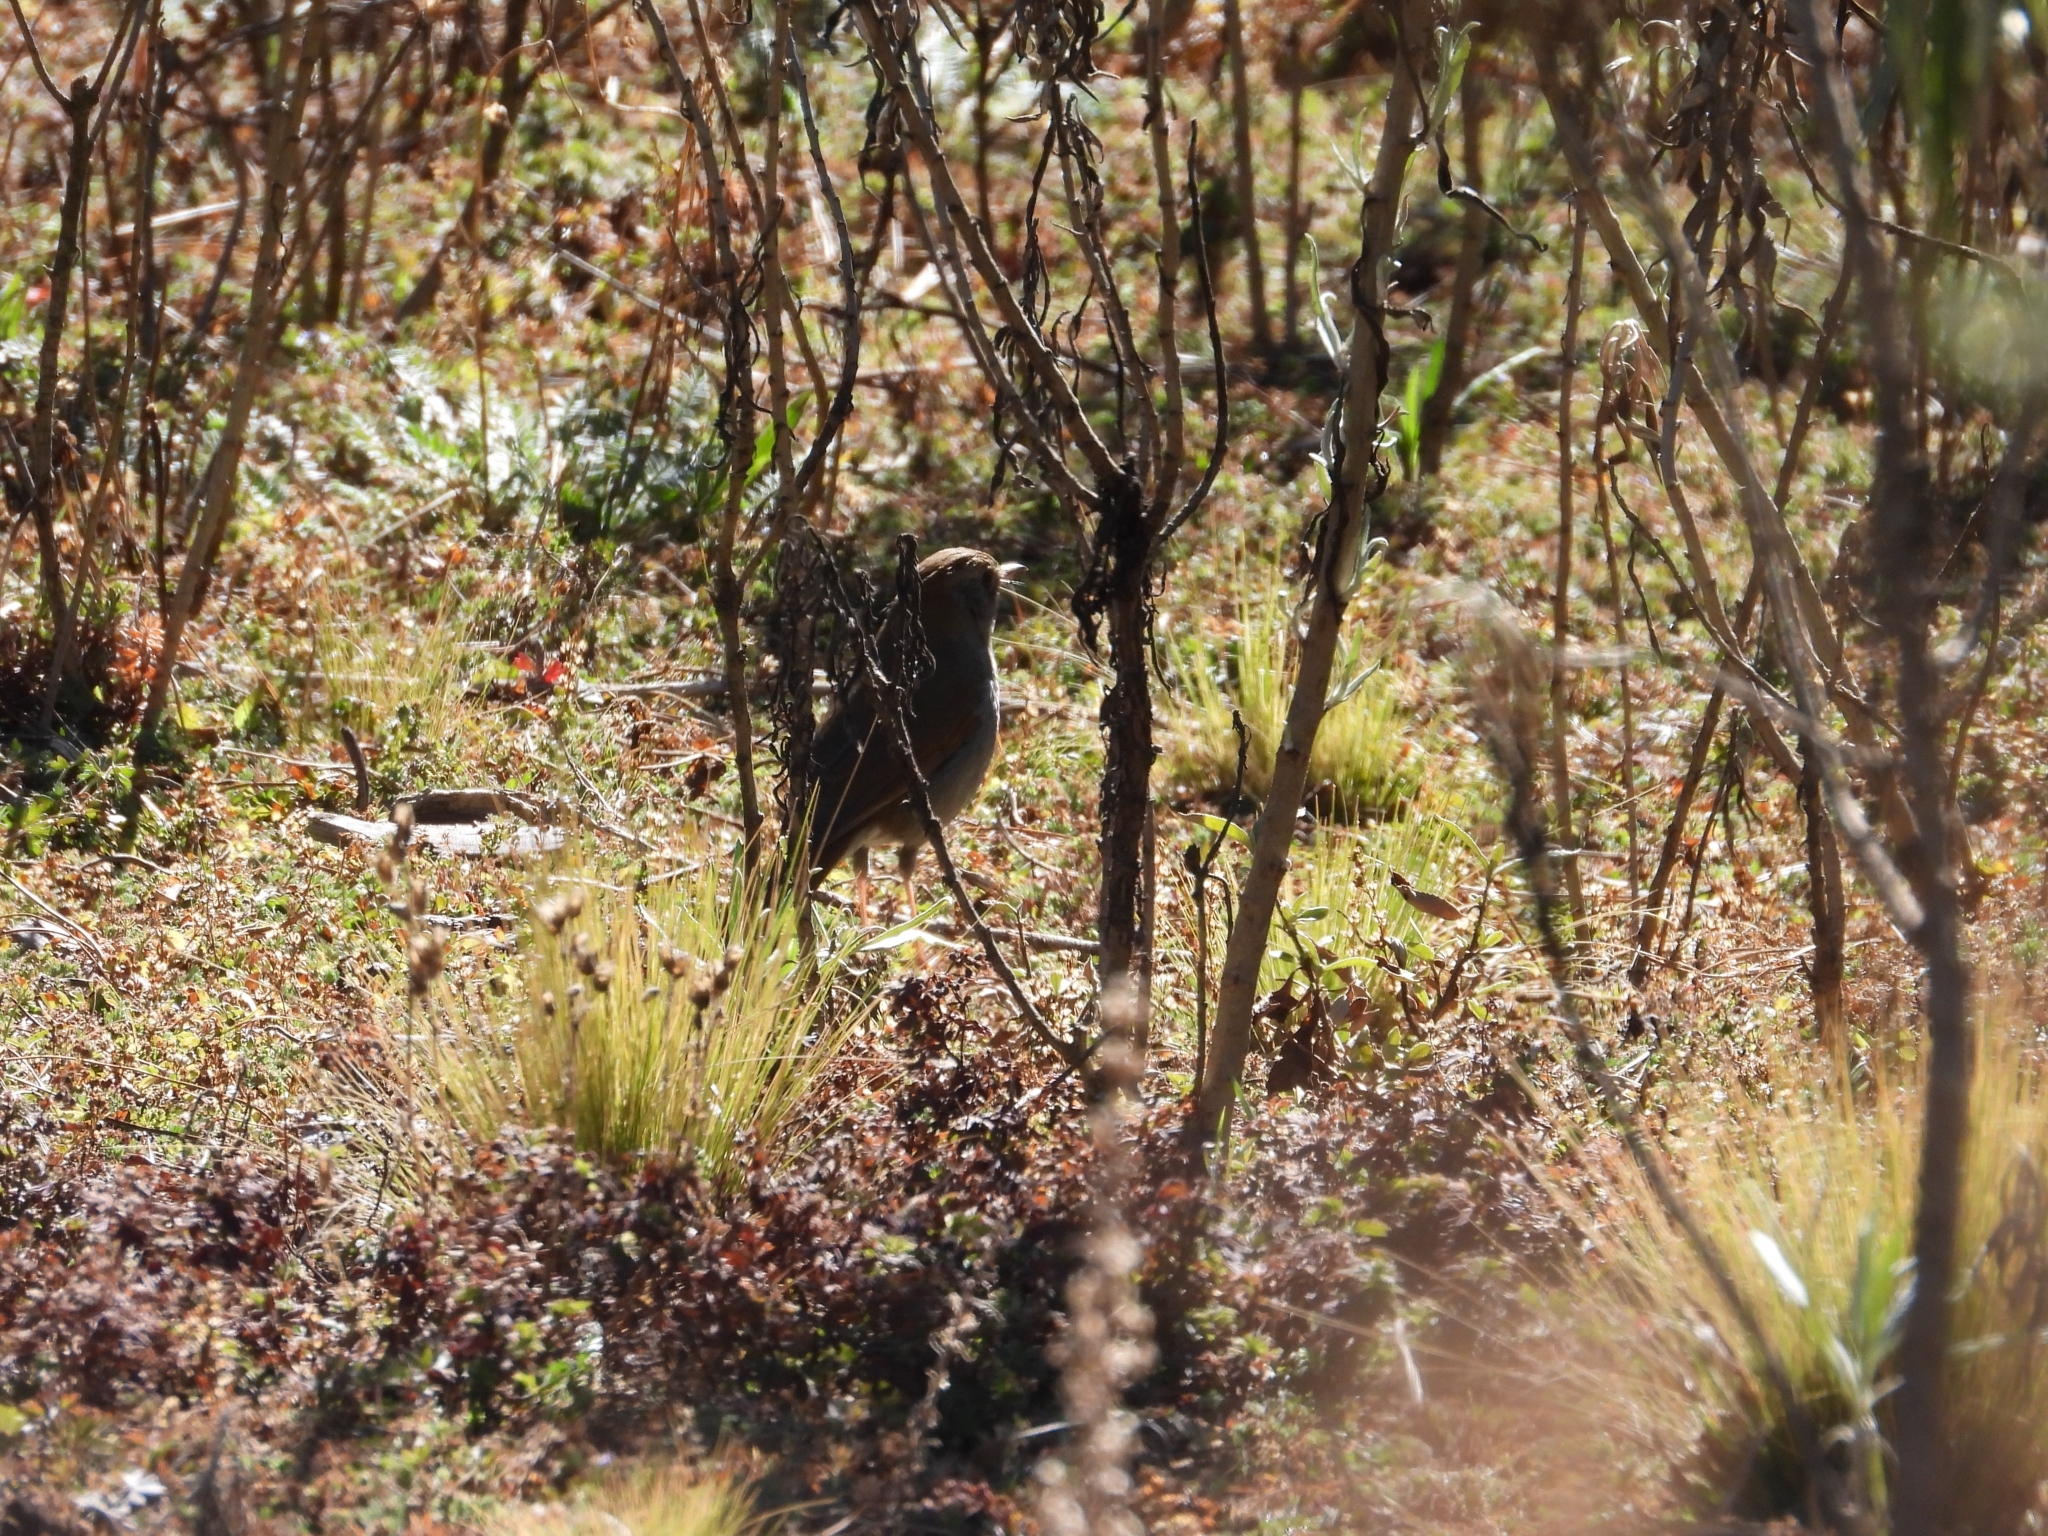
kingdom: Animalia
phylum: Chordata
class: Aves
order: Passeriformes
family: Turdidae
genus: Catharus
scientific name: Catharus occidentalis
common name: Russet nightingale-thrush
